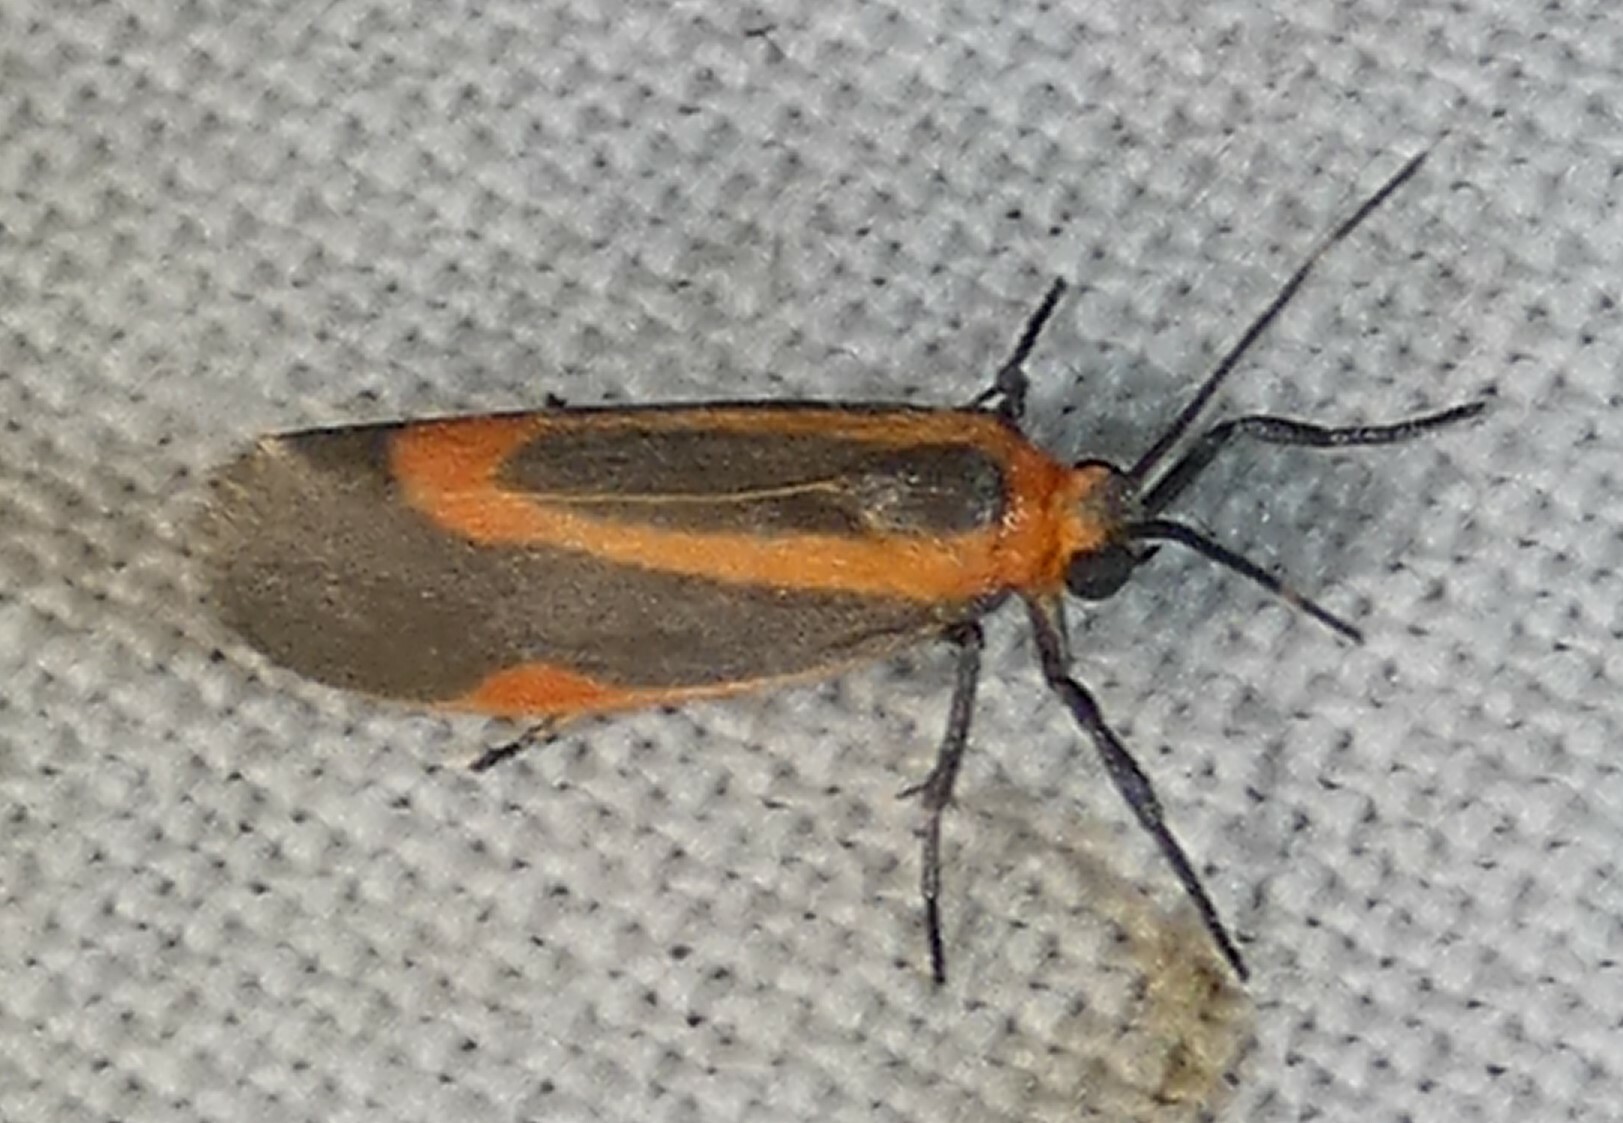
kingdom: Animalia
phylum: Arthropoda
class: Insecta
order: Lepidoptera
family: Erebidae
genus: Cisthene
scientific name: Cisthene subjecta
